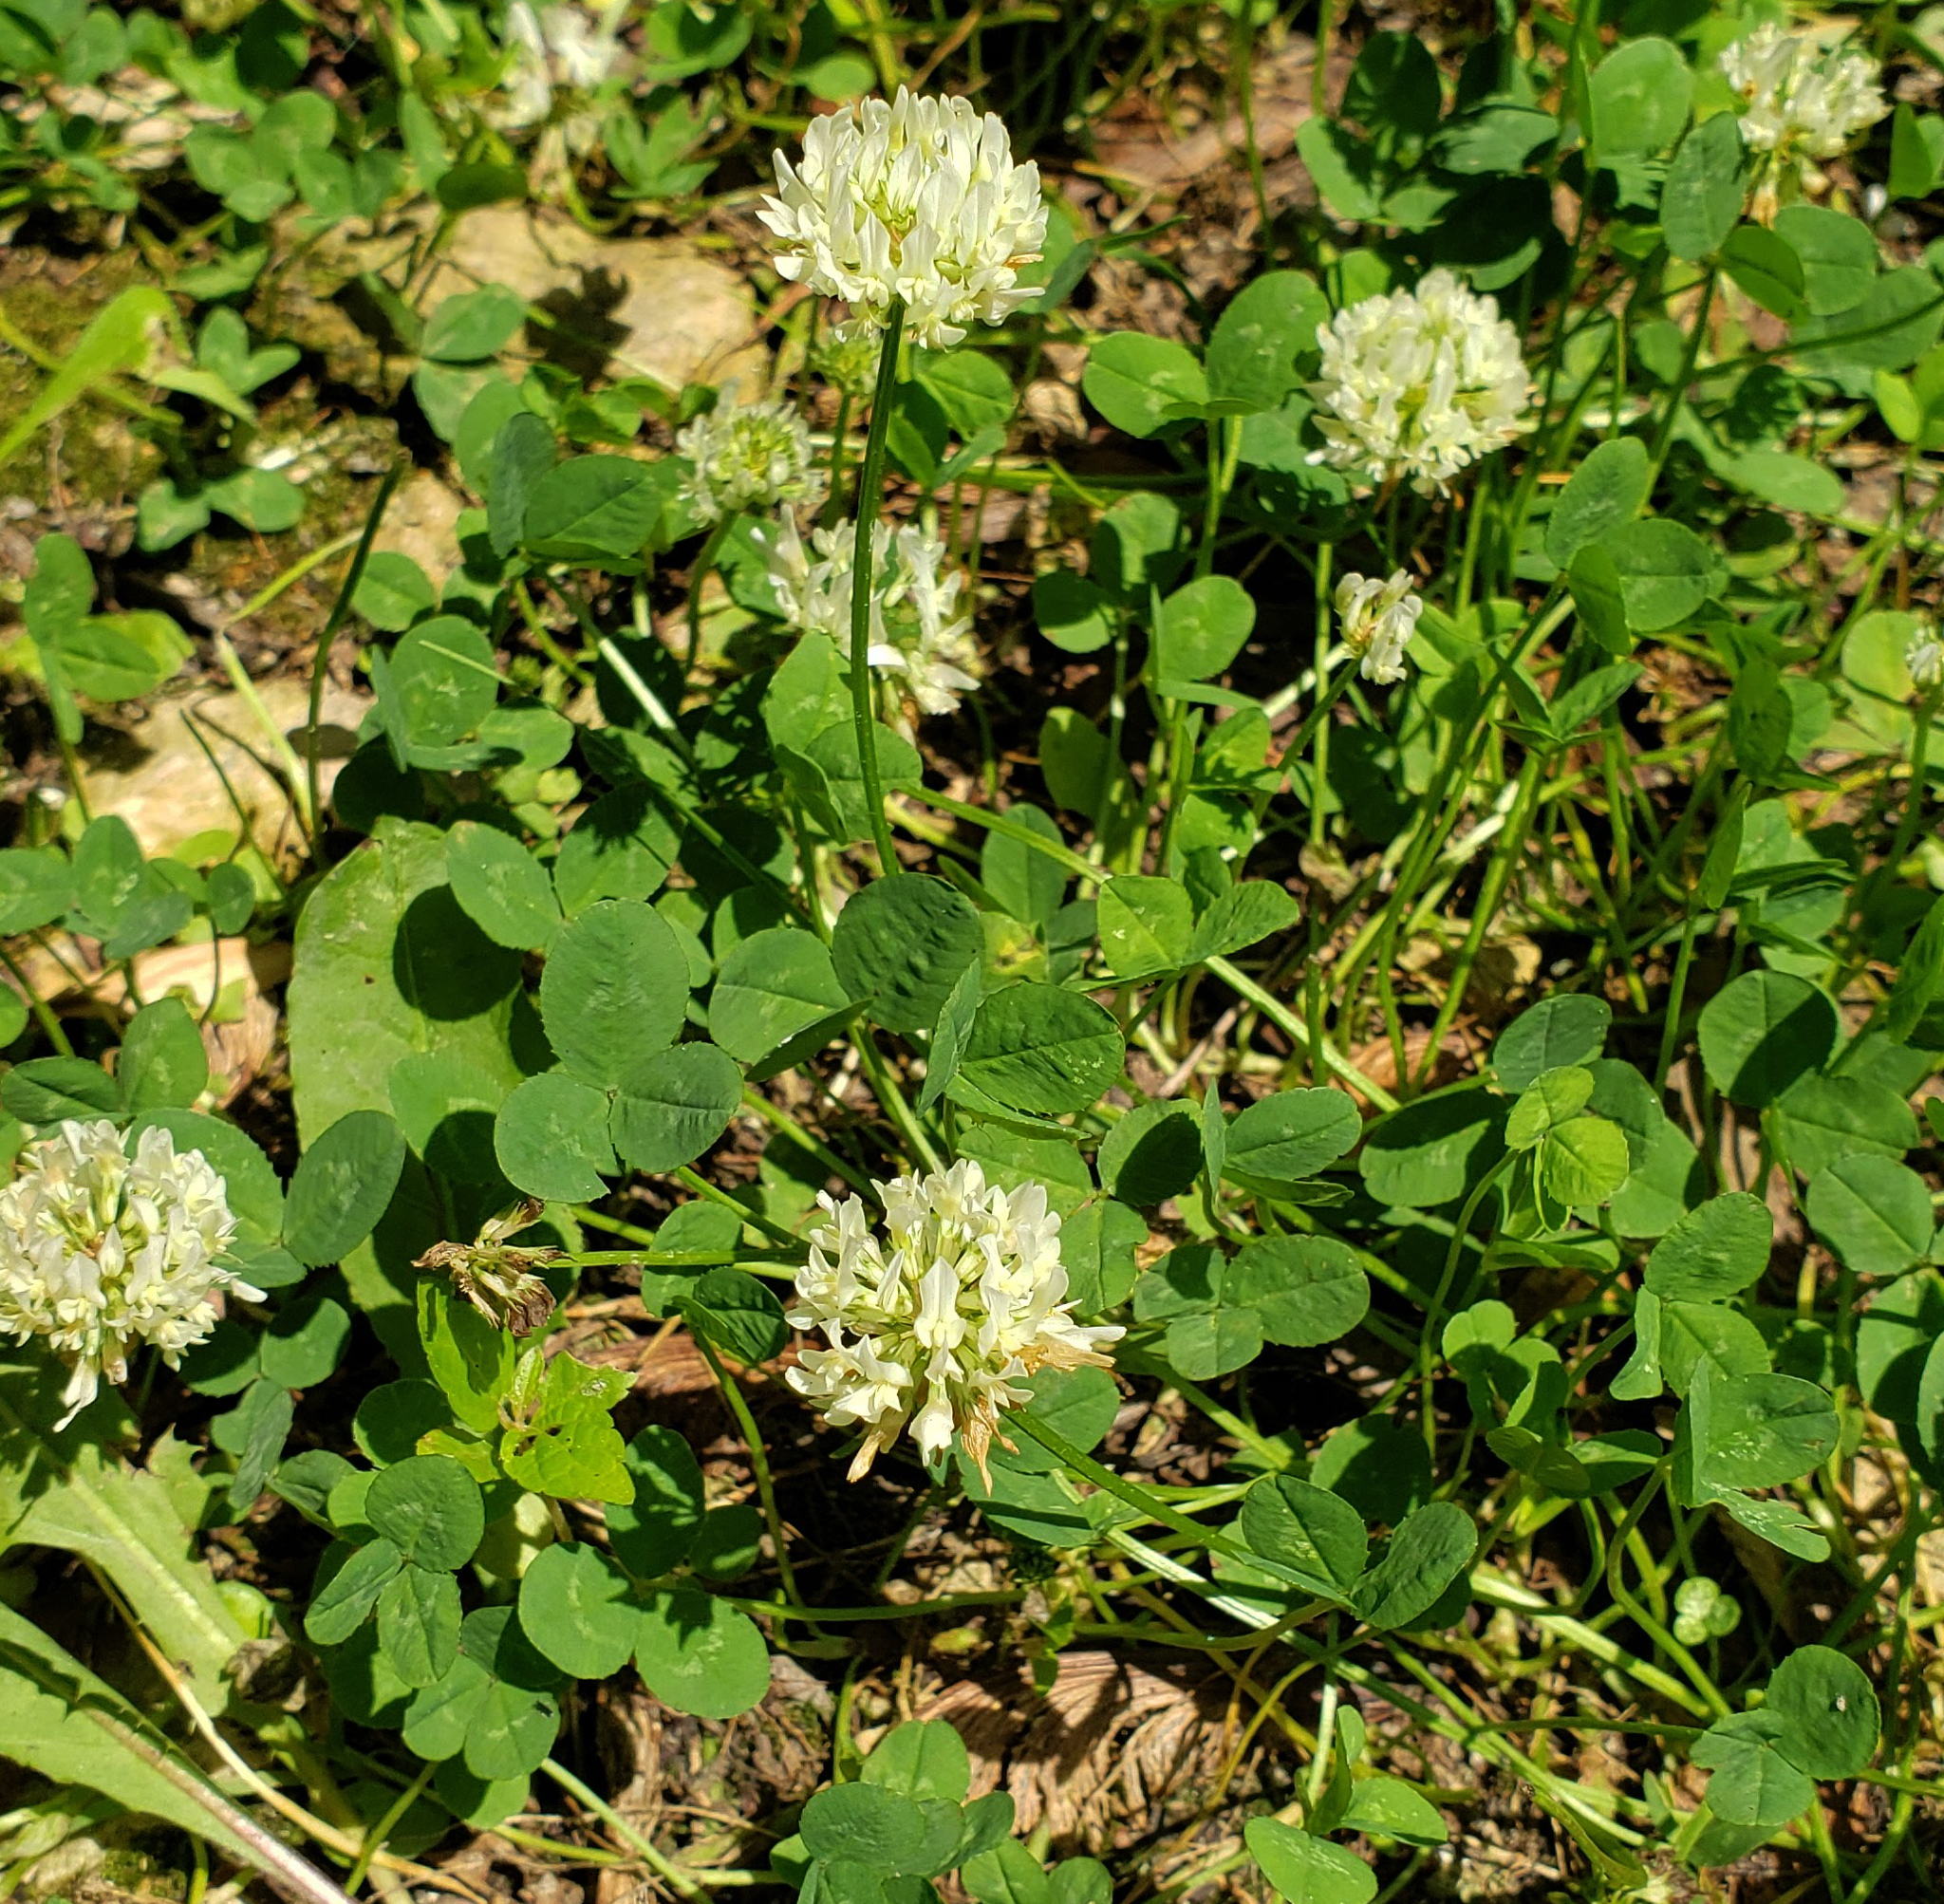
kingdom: Plantae
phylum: Tracheophyta
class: Magnoliopsida
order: Fabales
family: Fabaceae
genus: Trifolium
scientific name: Trifolium repens
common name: White clover
